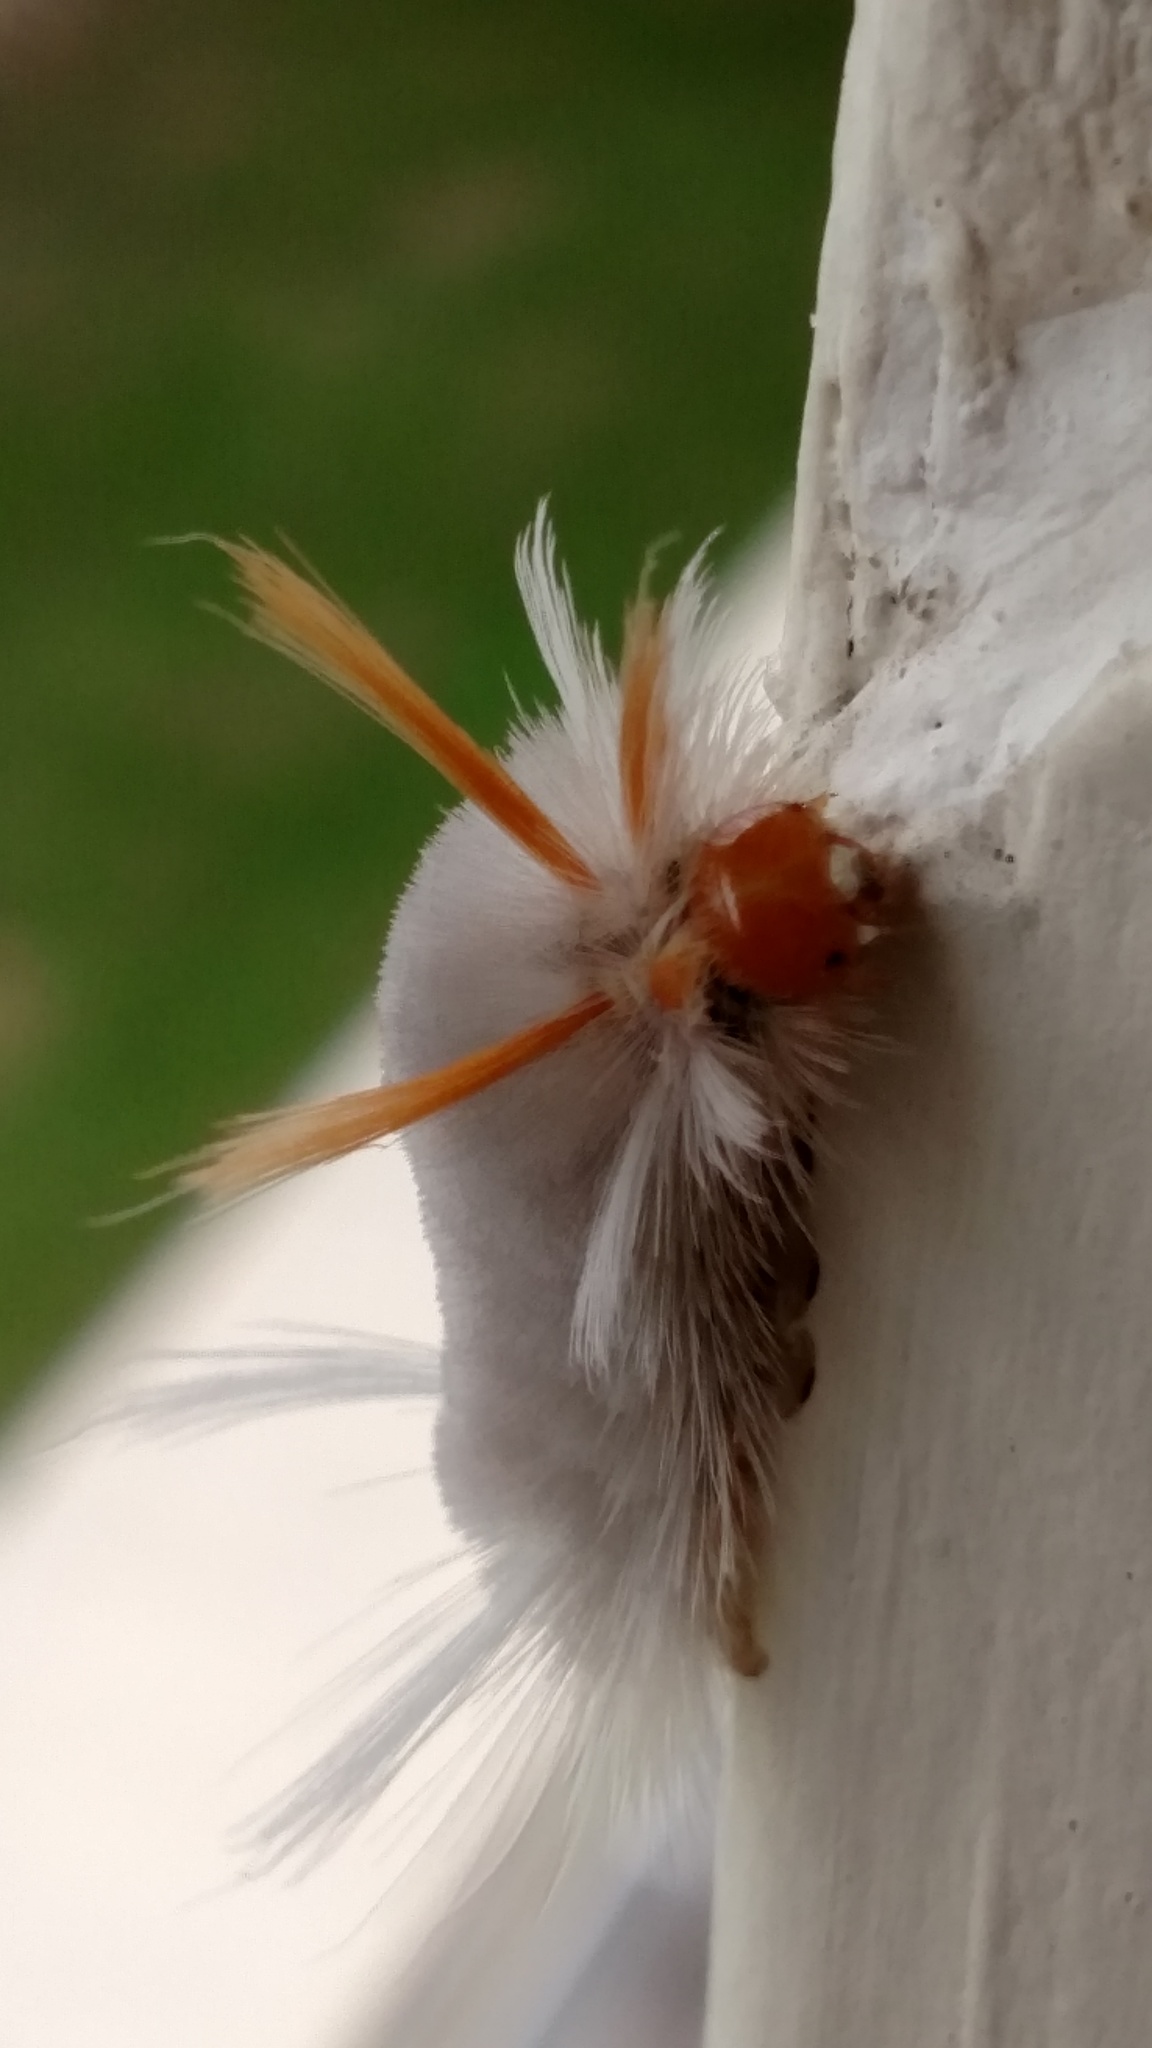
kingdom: Animalia
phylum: Arthropoda
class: Insecta
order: Lepidoptera
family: Erebidae
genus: Halysidota
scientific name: Halysidota harrisii
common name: Sycamore tussock moth
